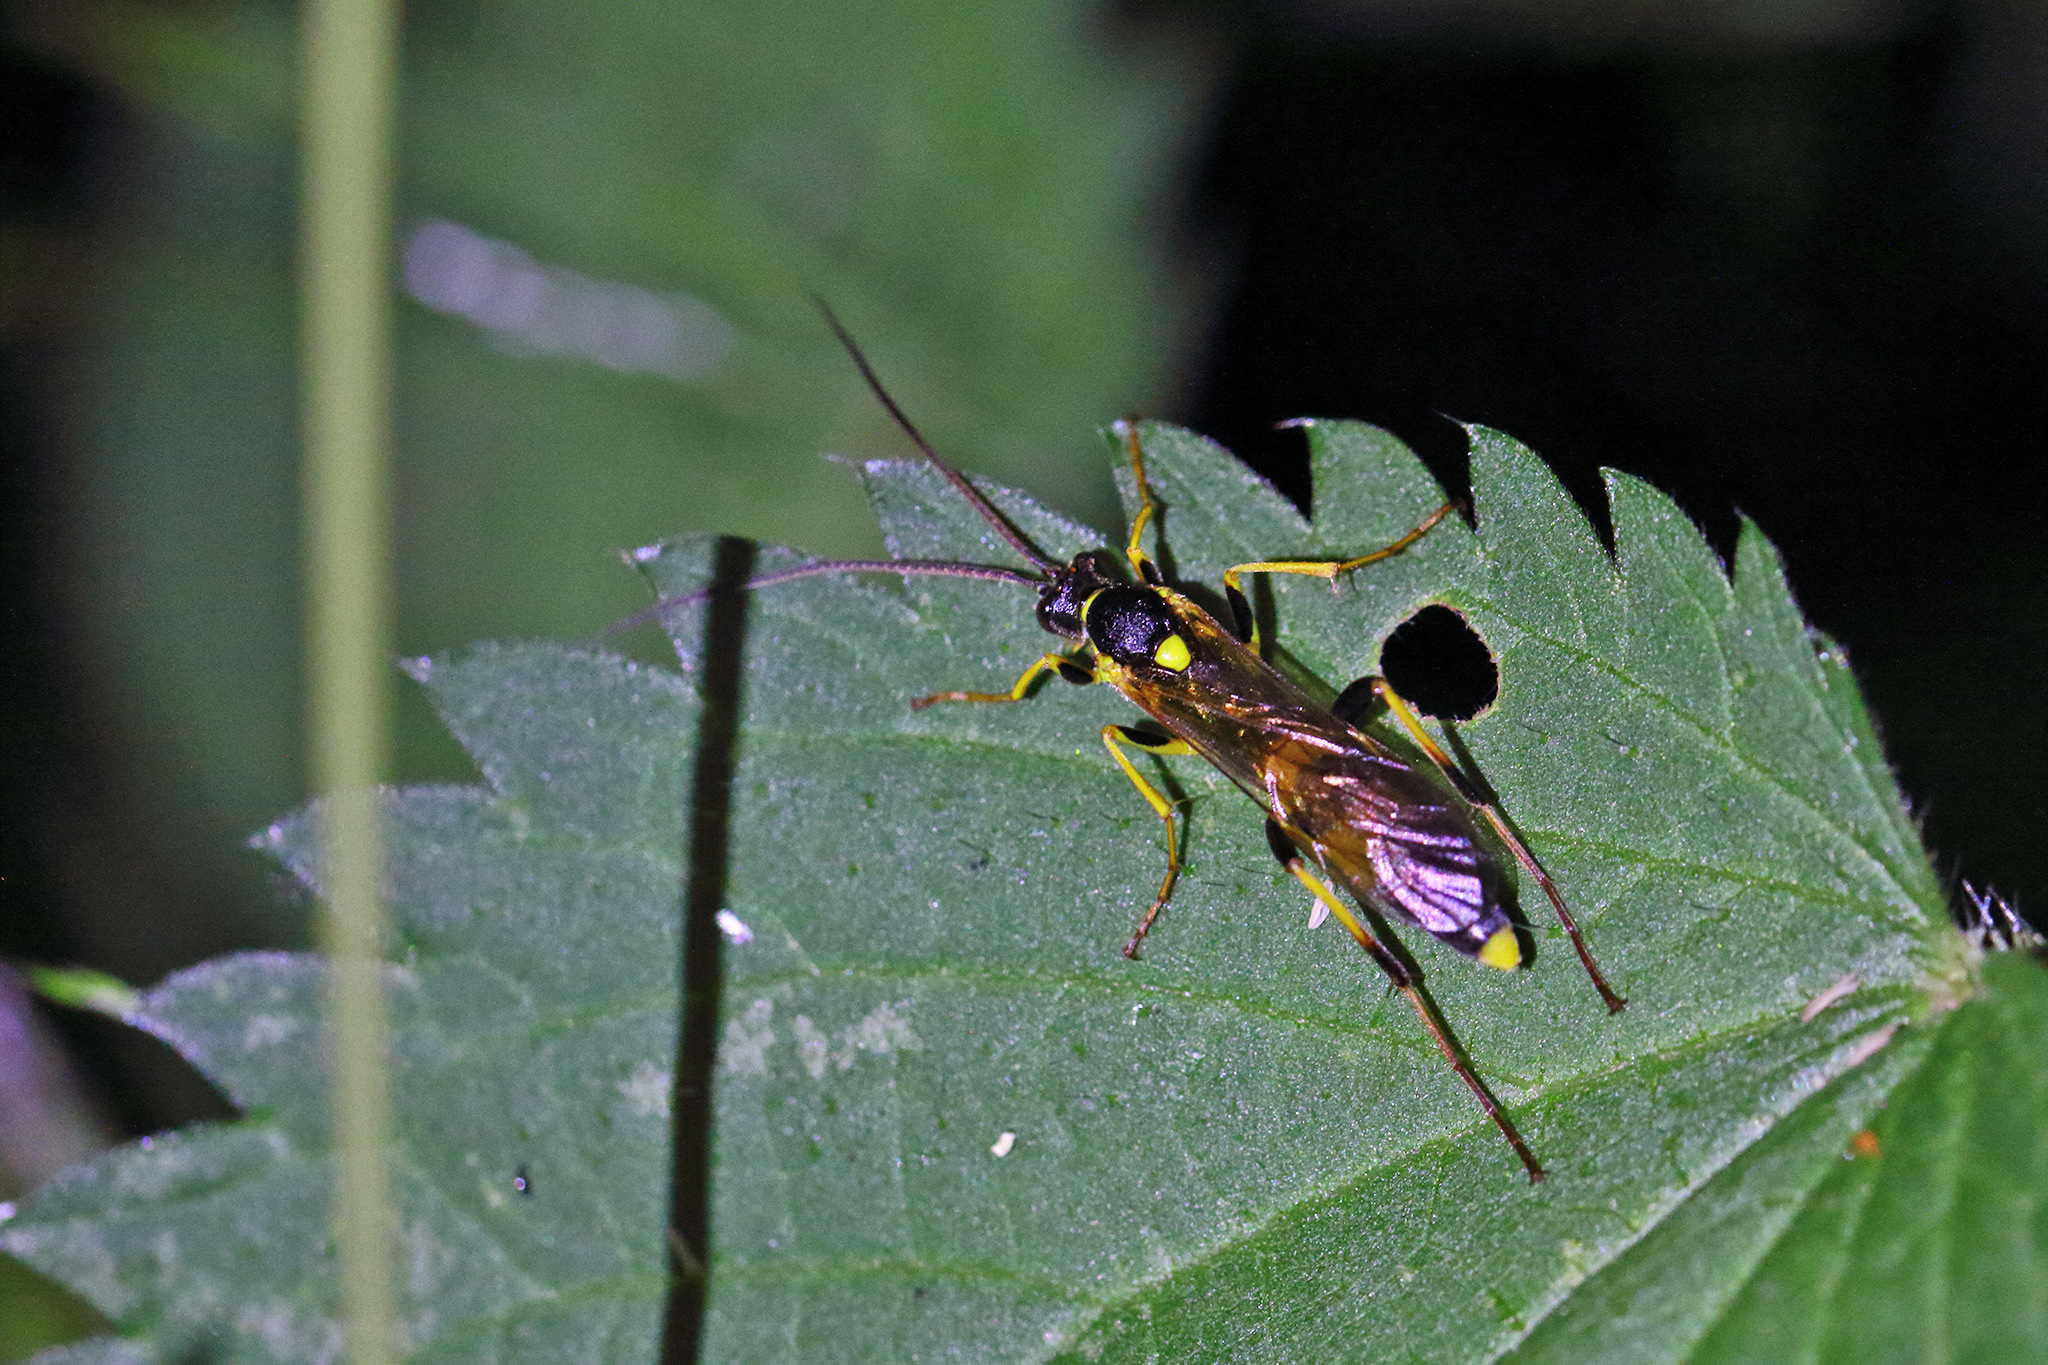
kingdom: Animalia
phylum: Arthropoda
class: Insecta
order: Hymenoptera
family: Ichneumonidae
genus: Amblyteles
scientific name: Amblyteles armatorius
